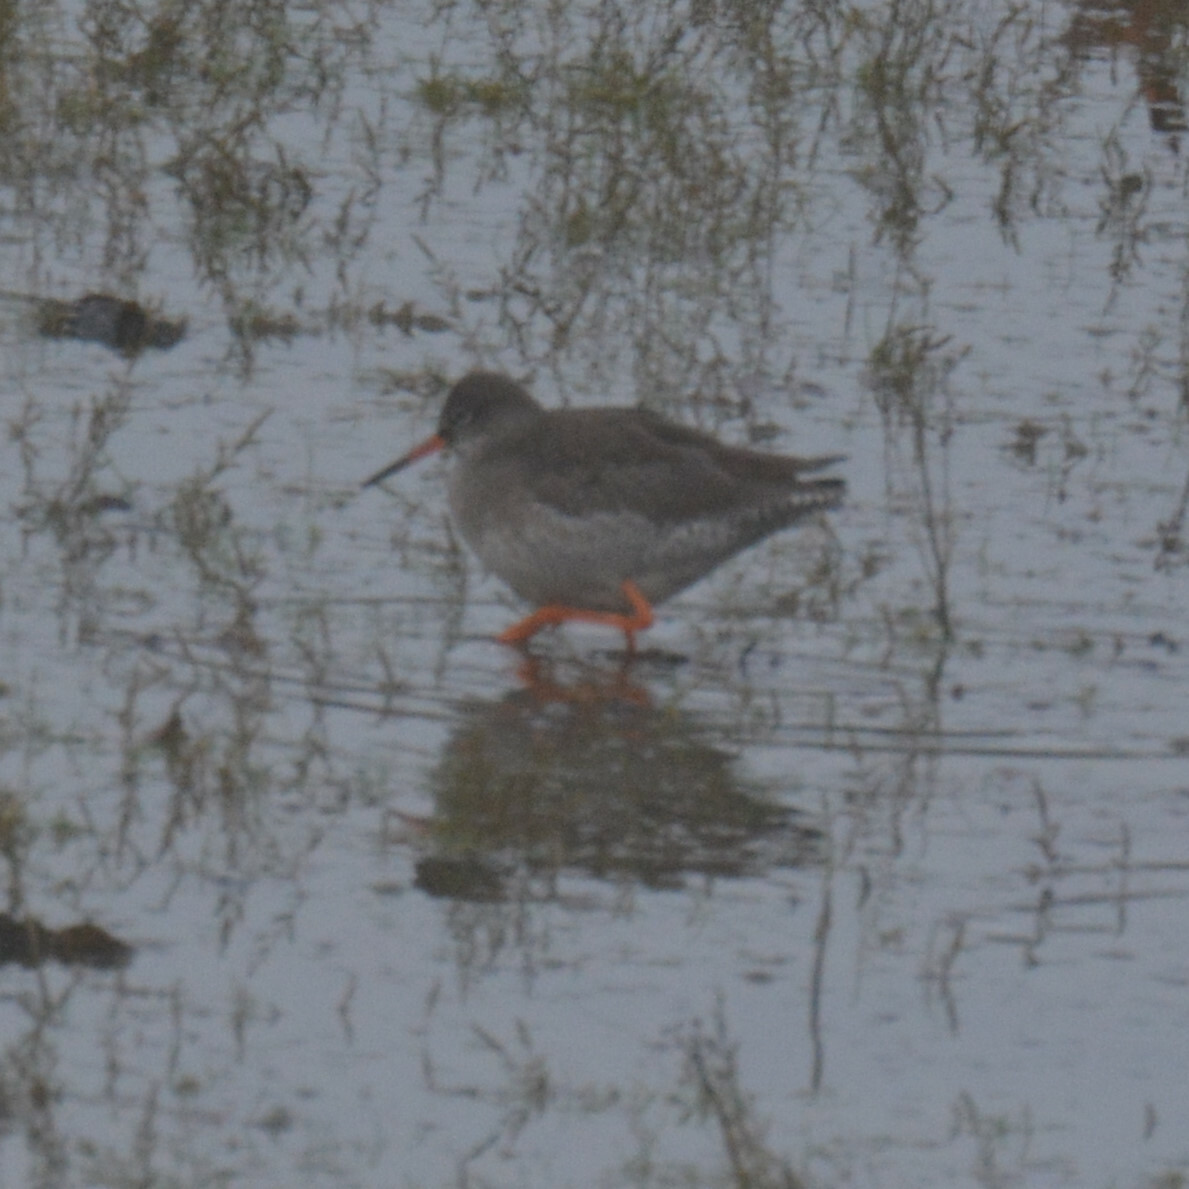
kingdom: Animalia
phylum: Chordata
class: Aves
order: Charadriiformes
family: Scolopacidae
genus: Tringa
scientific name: Tringa totanus
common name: Common redshank
